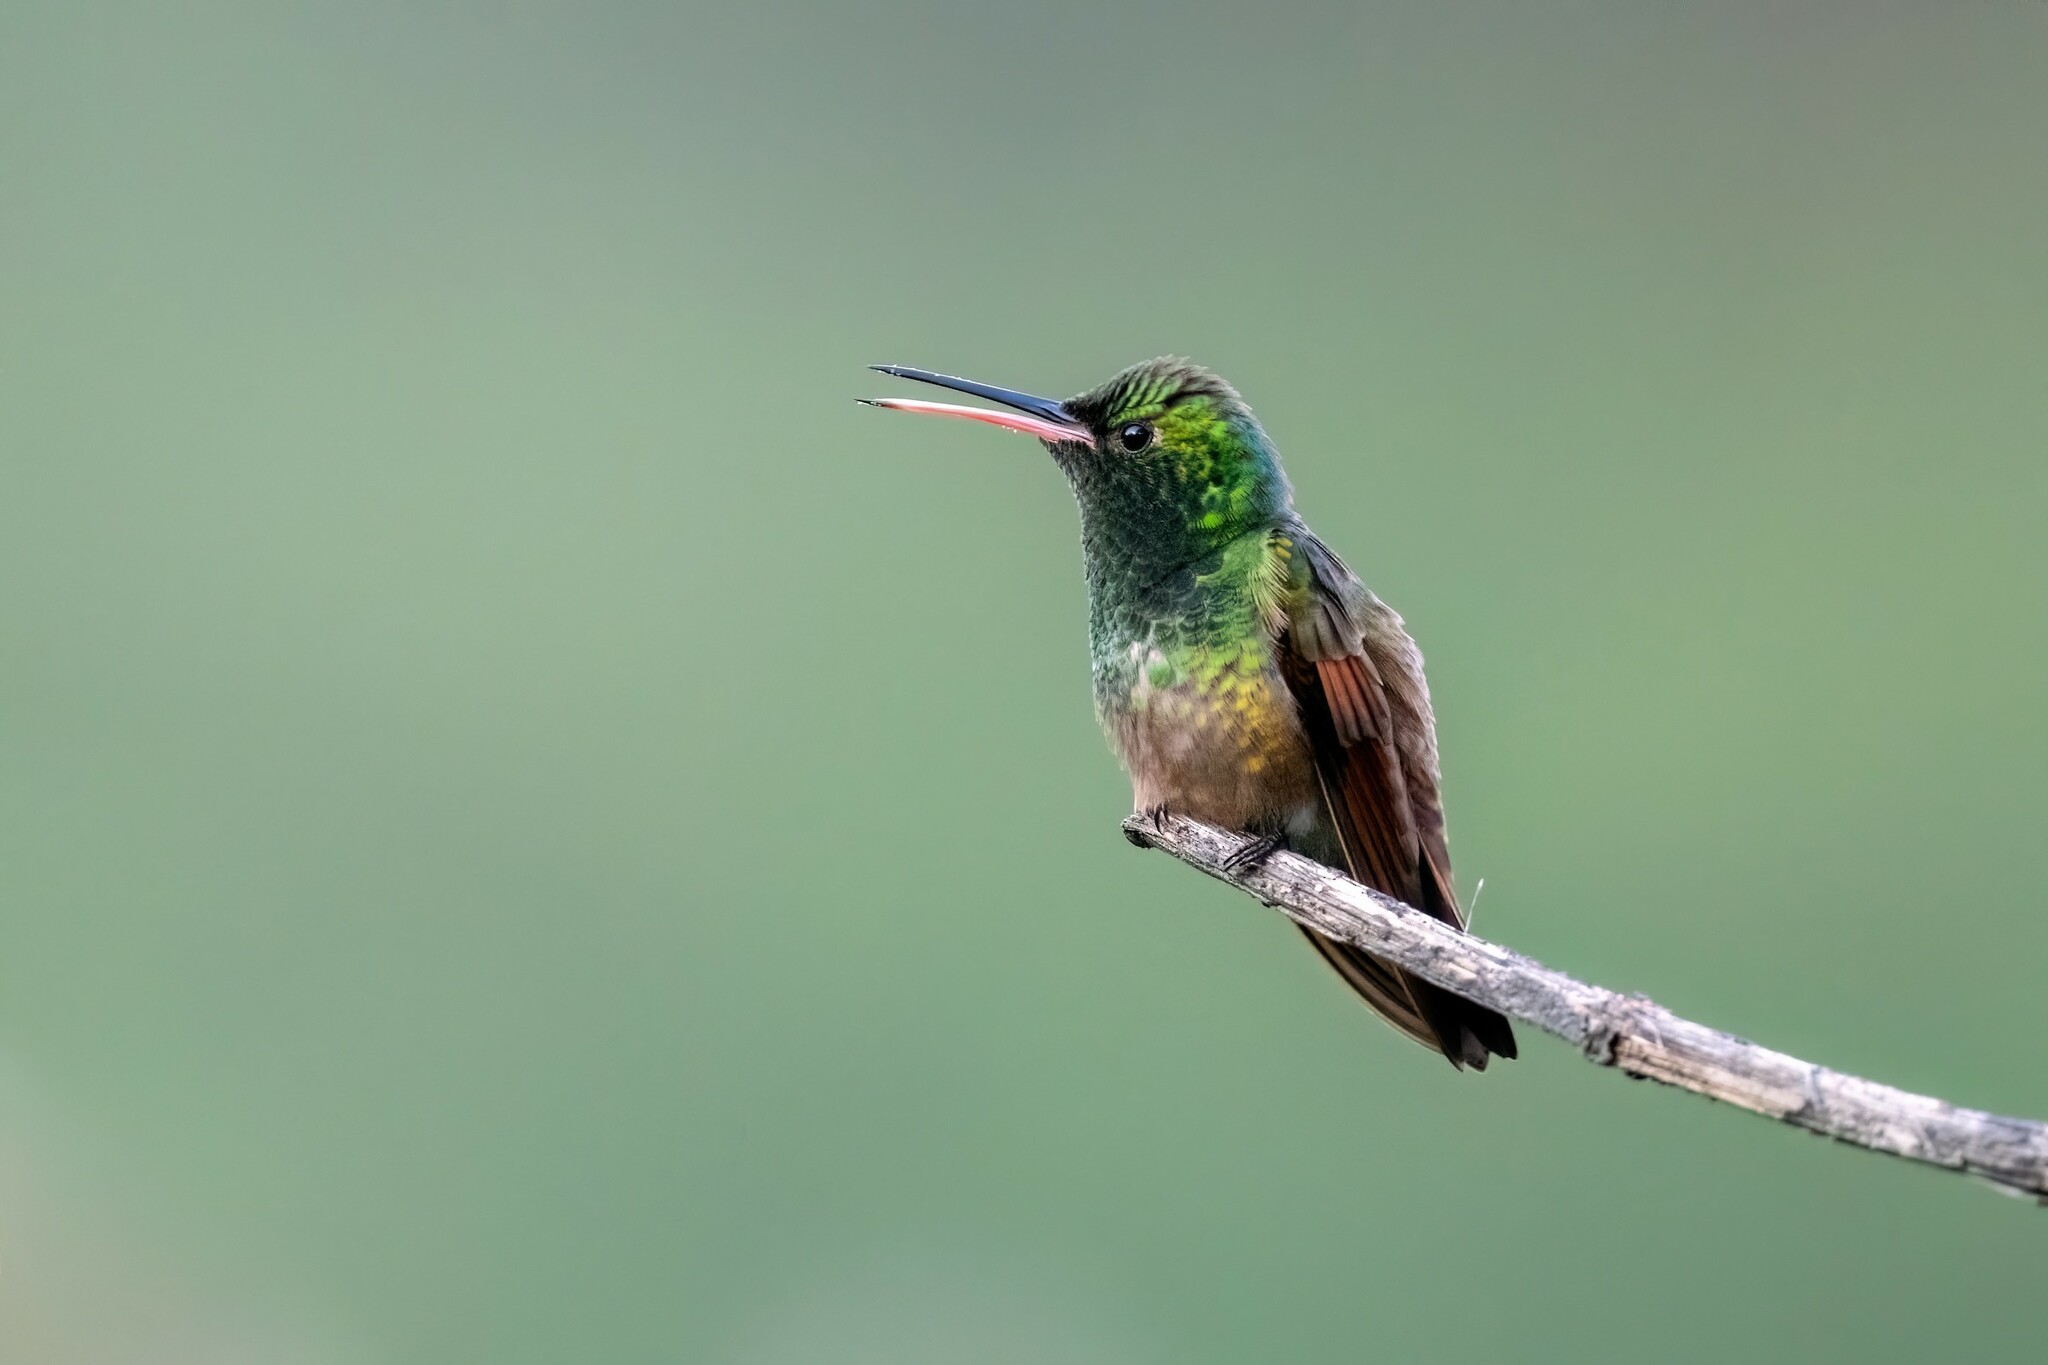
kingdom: Animalia
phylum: Chordata
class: Aves
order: Apodiformes
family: Trochilidae
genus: Saucerottia
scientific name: Saucerottia beryllina
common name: Berylline hummingbird
